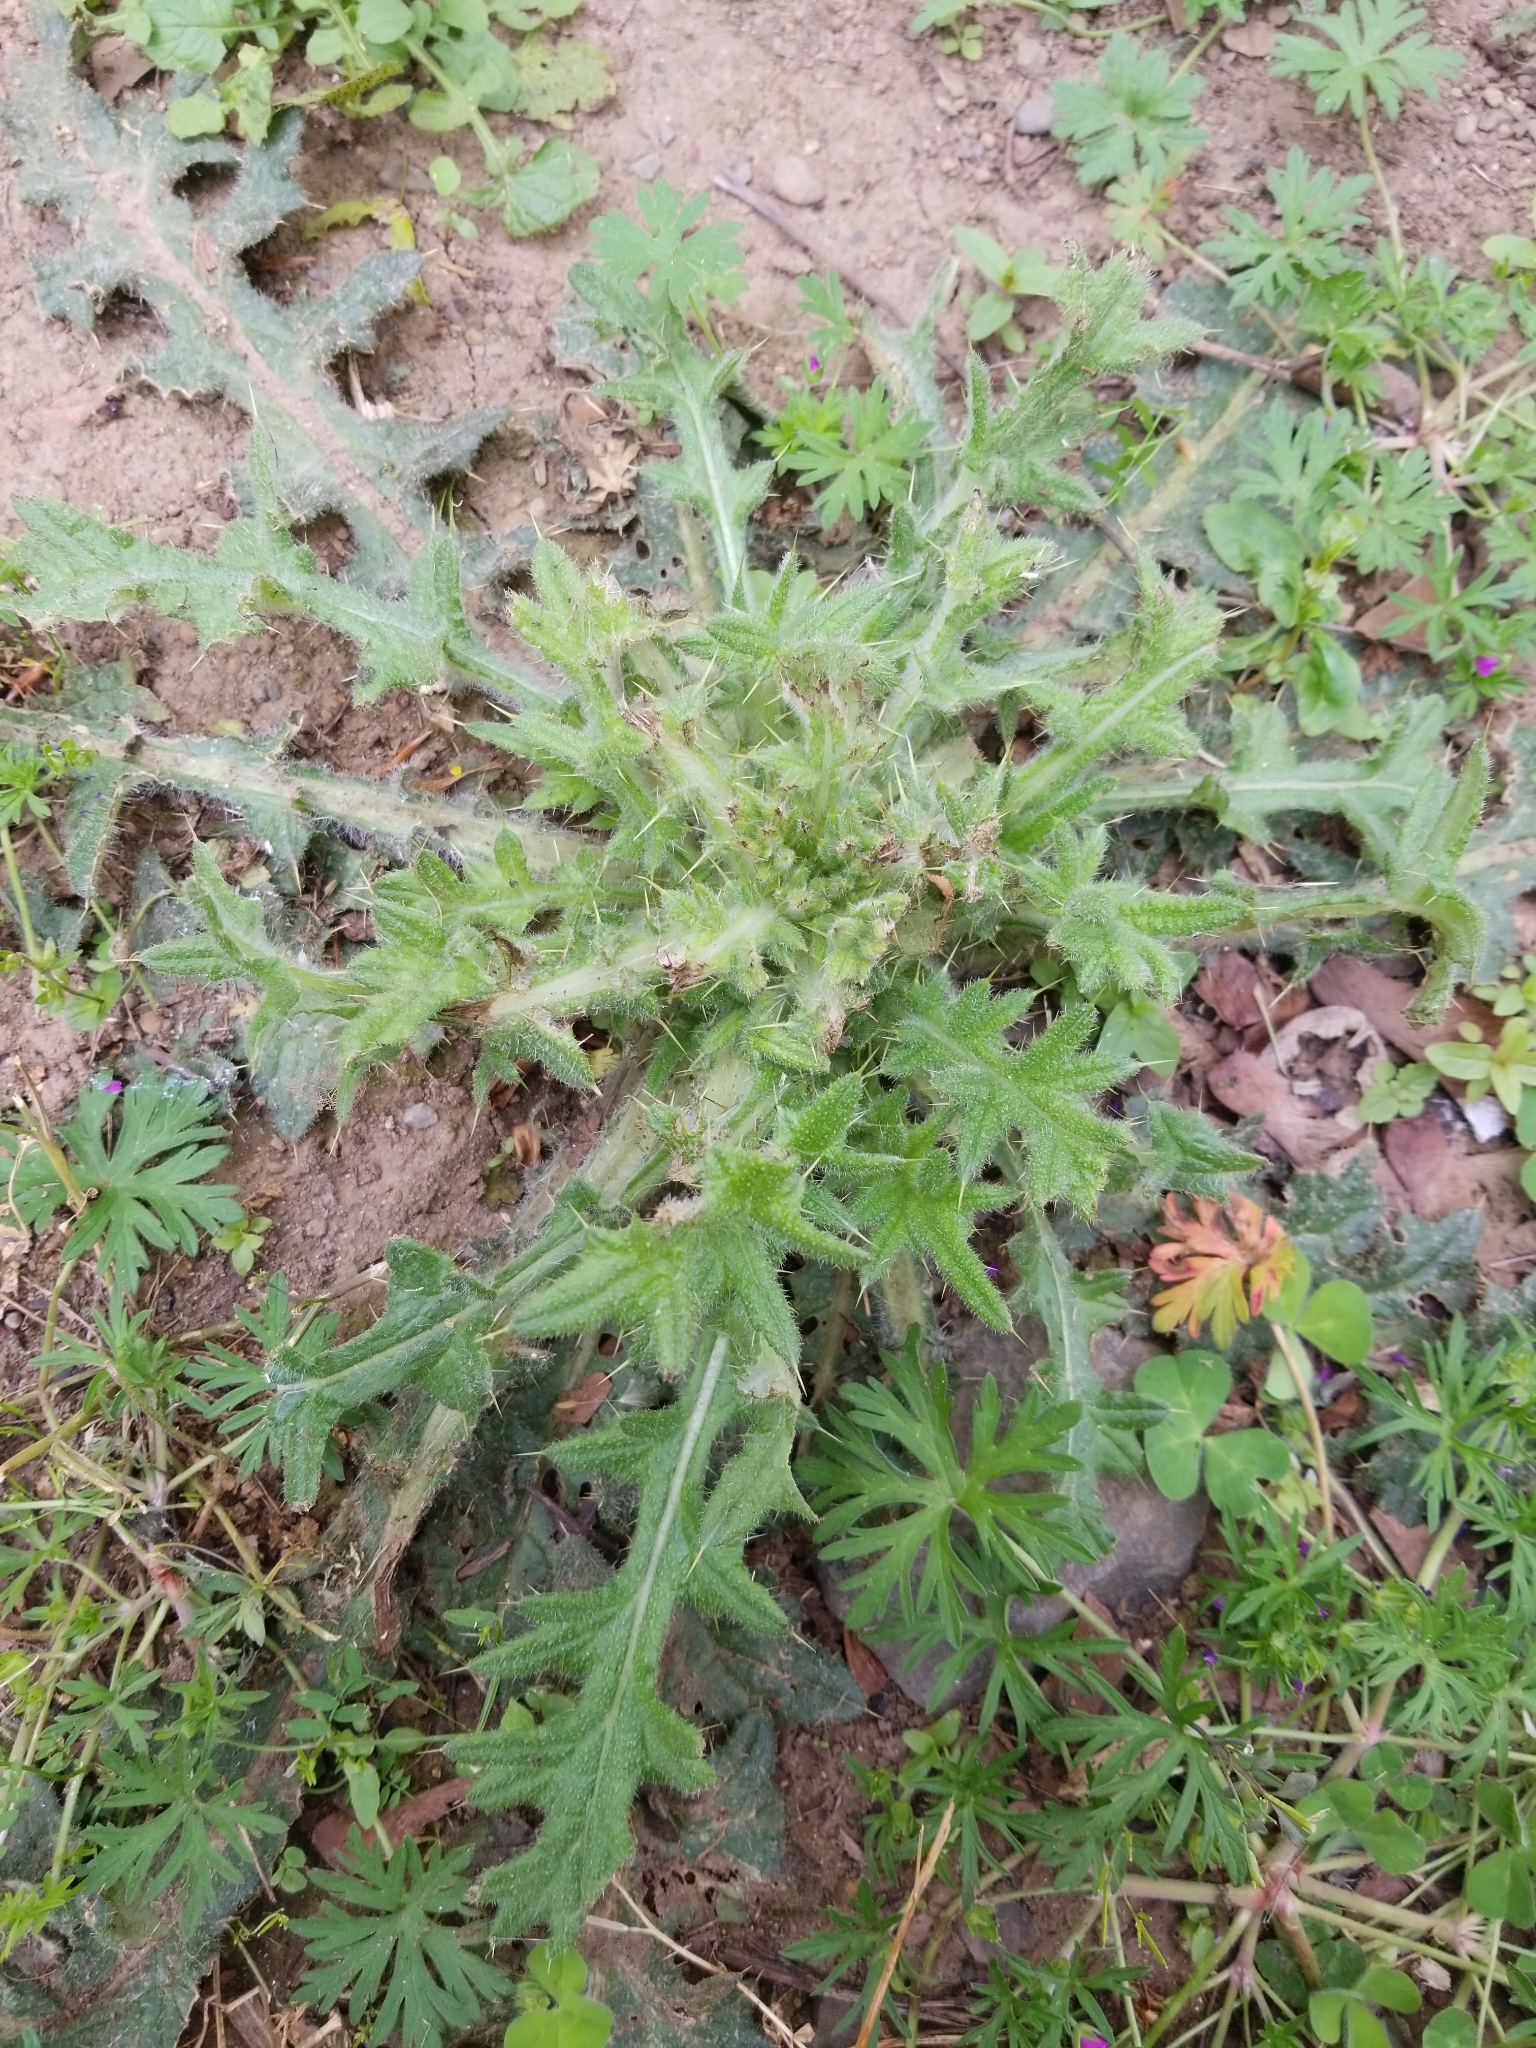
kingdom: Plantae
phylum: Tracheophyta
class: Magnoliopsida
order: Asterales
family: Asteraceae
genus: Cirsium
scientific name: Cirsium vulgare
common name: Bull thistle
